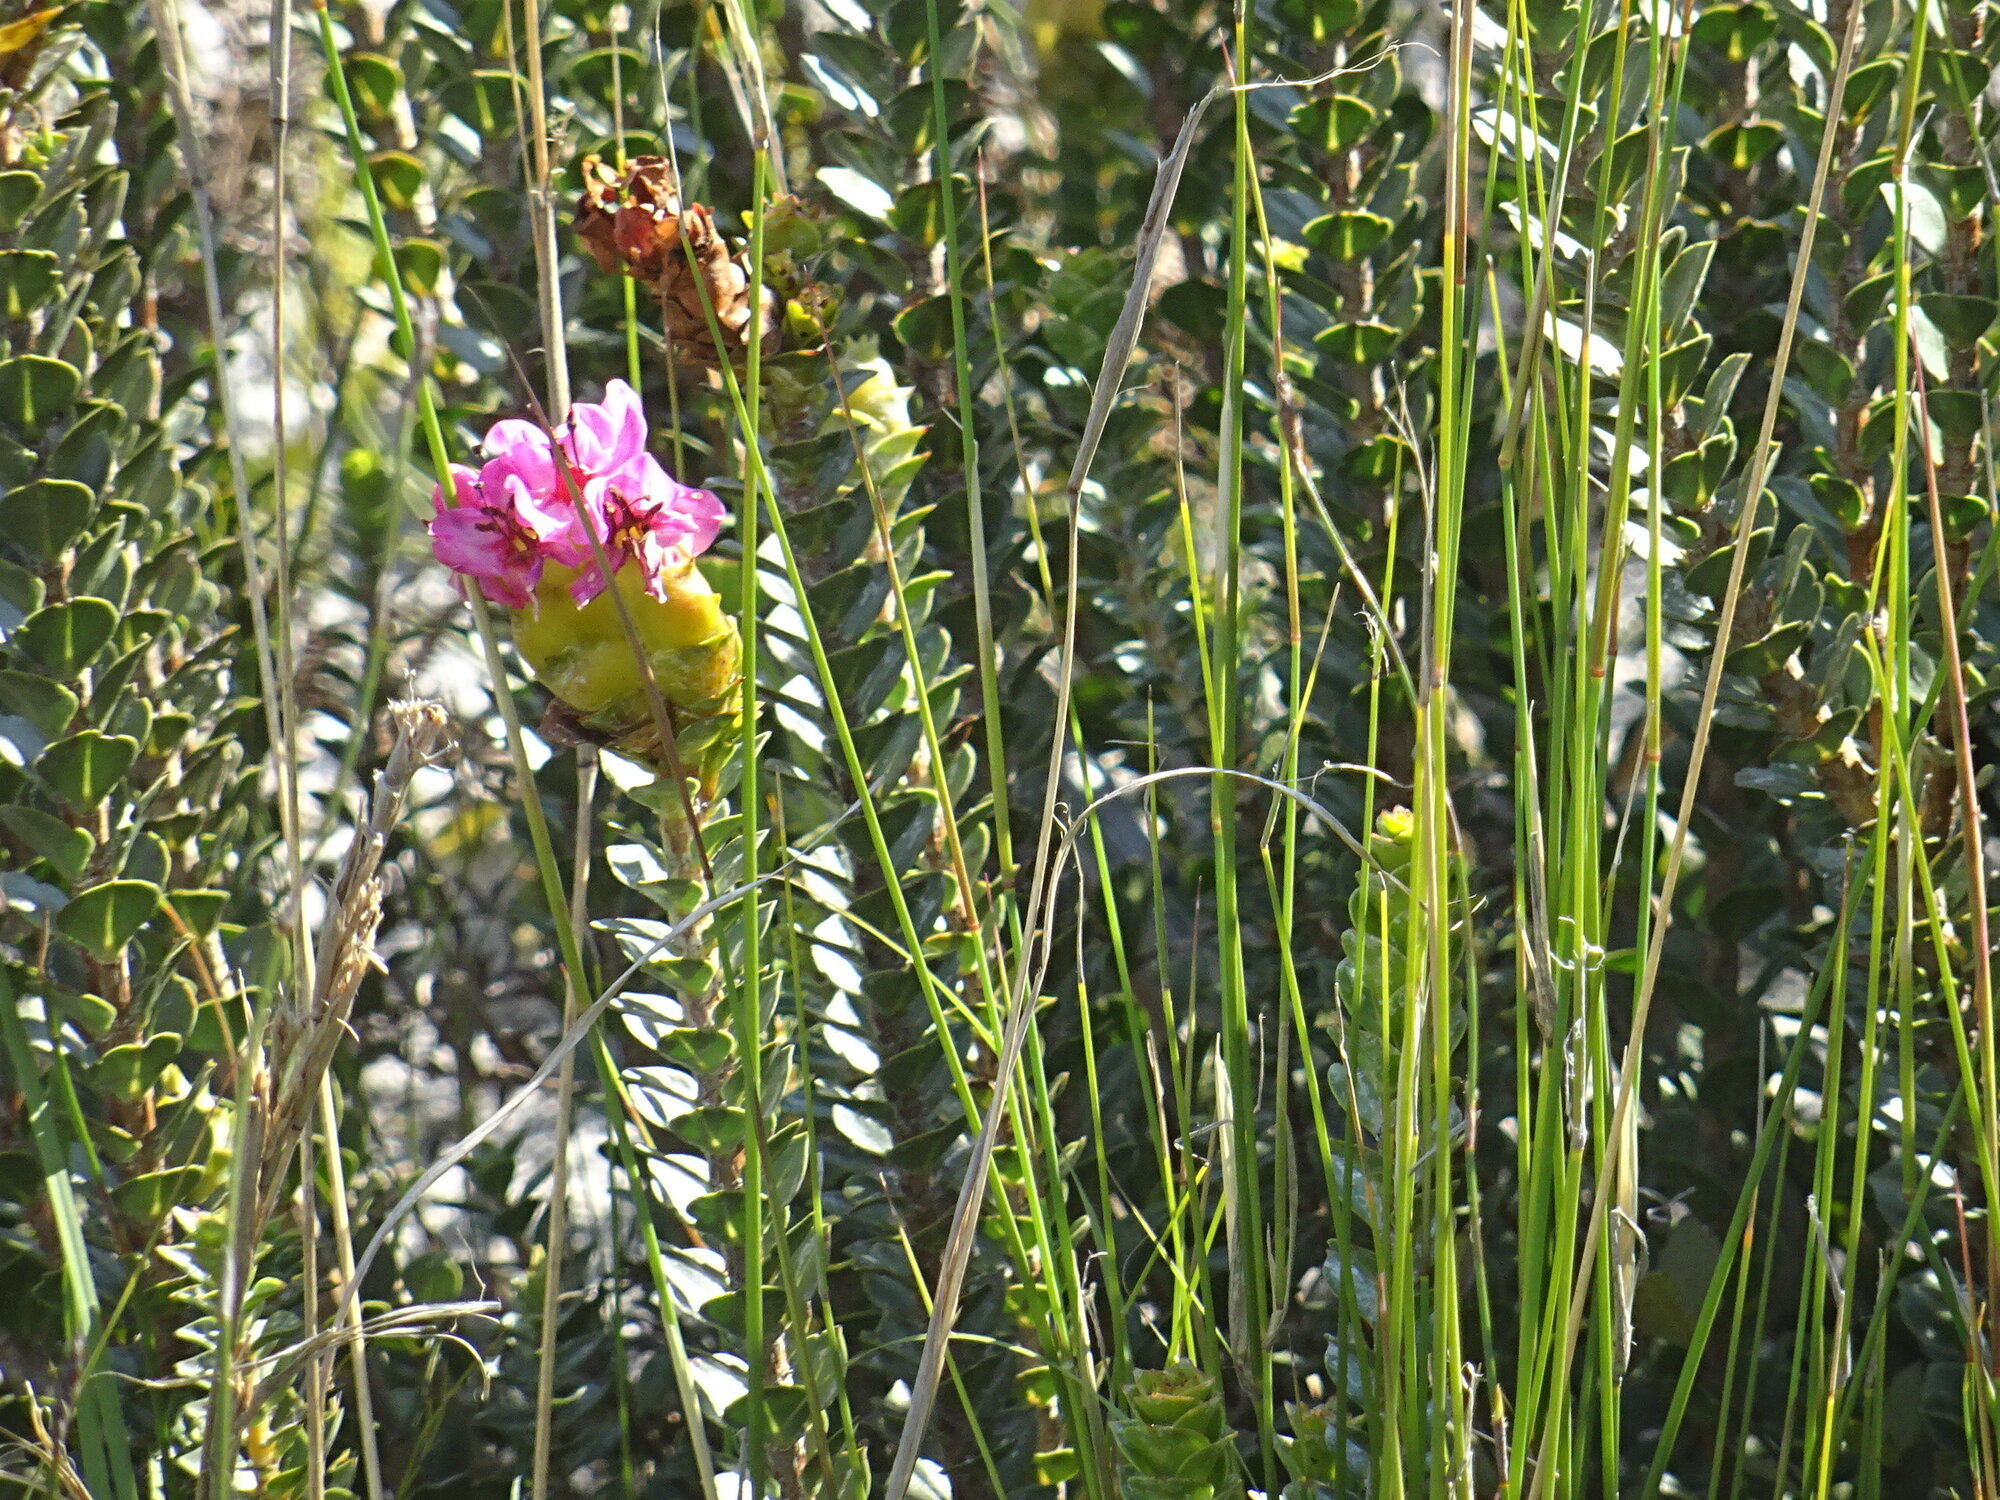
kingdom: Plantae
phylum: Tracheophyta
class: Magnoliopsida
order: Myrtales
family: Penaeaceae
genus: Saltera
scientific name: Saltera sarcocolla
